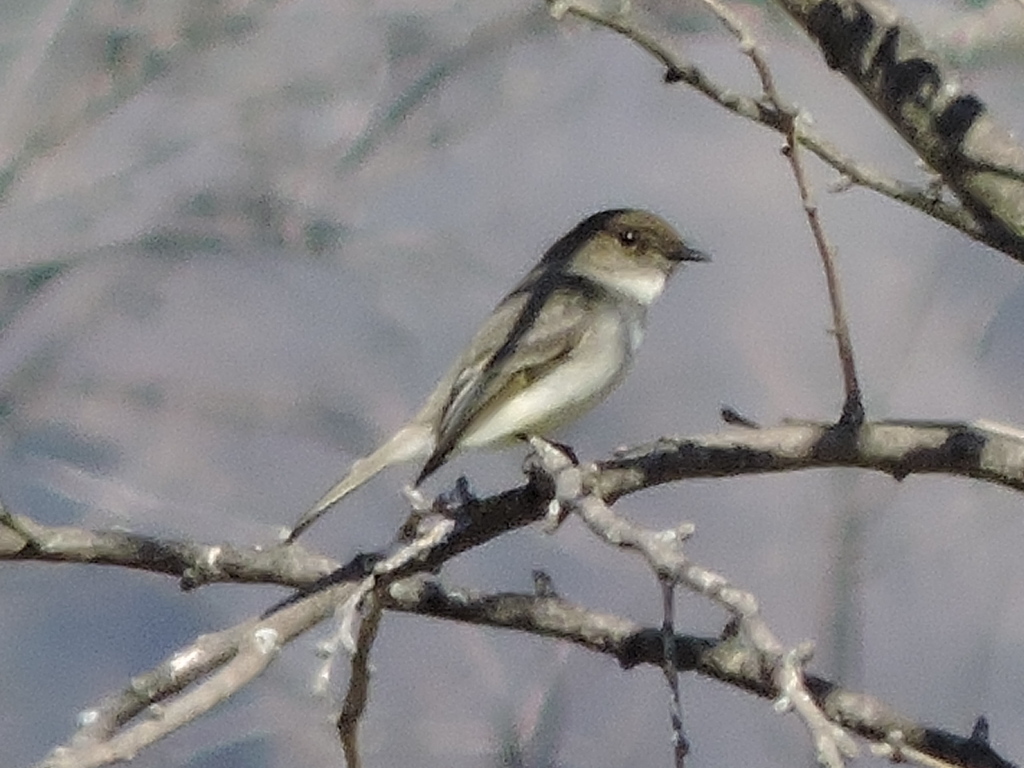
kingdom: Animalia
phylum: Chordata
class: Aves
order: Passeriformes
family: Tyrannidae
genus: Sayornis
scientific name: Sayornis phoebe
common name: Eastern phoebe
